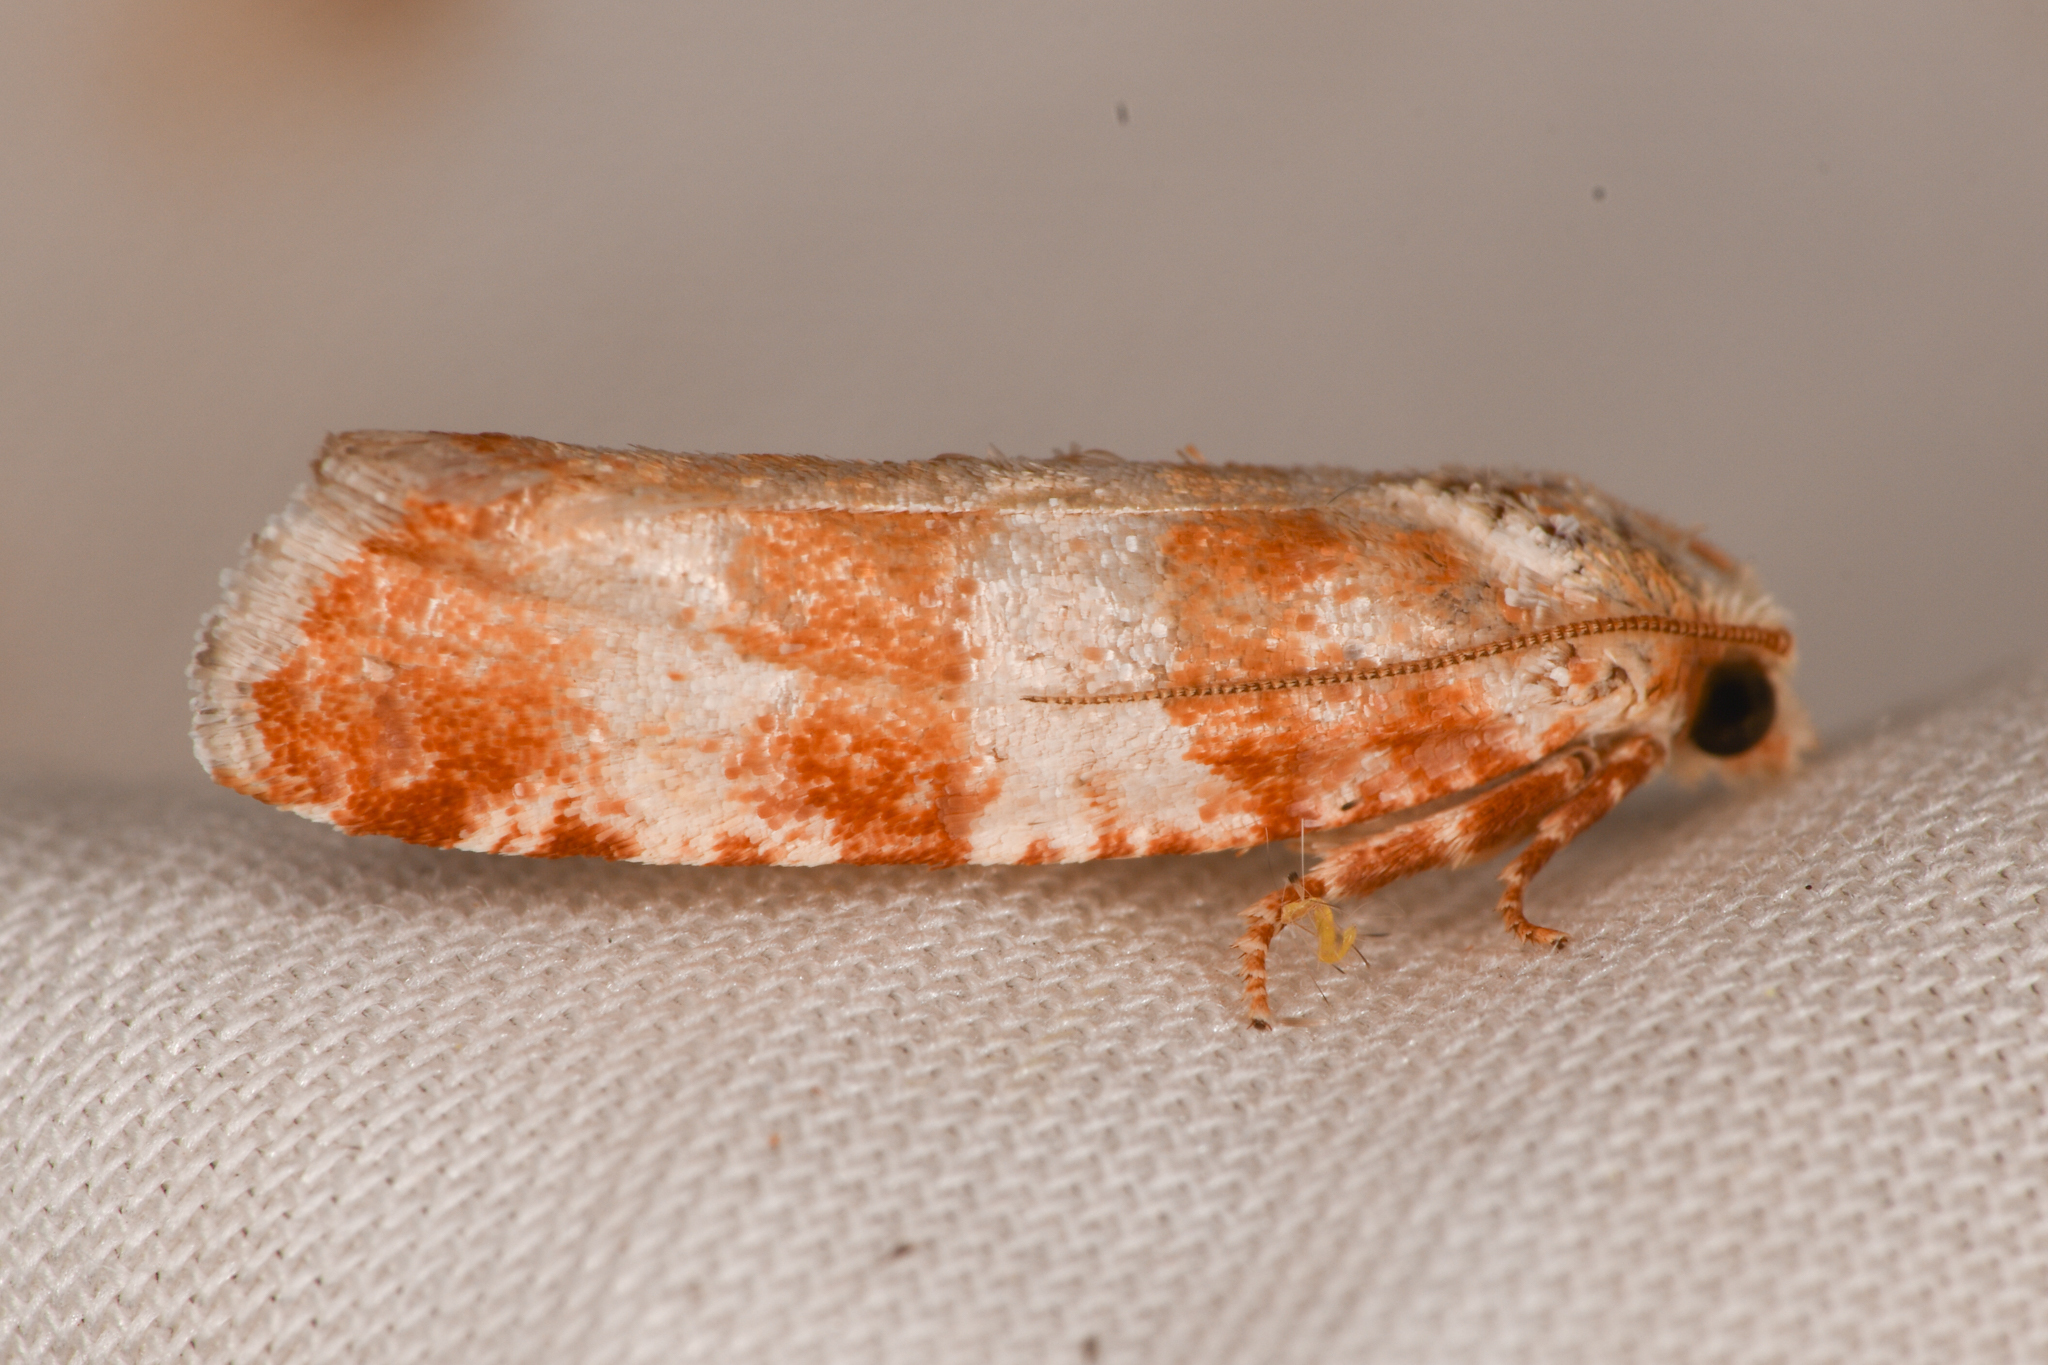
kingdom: Animalia
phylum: Arthropoda
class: Insecta
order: Lepidoptera
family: Tortricidae
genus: Retinia
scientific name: Retinia sabiniana
